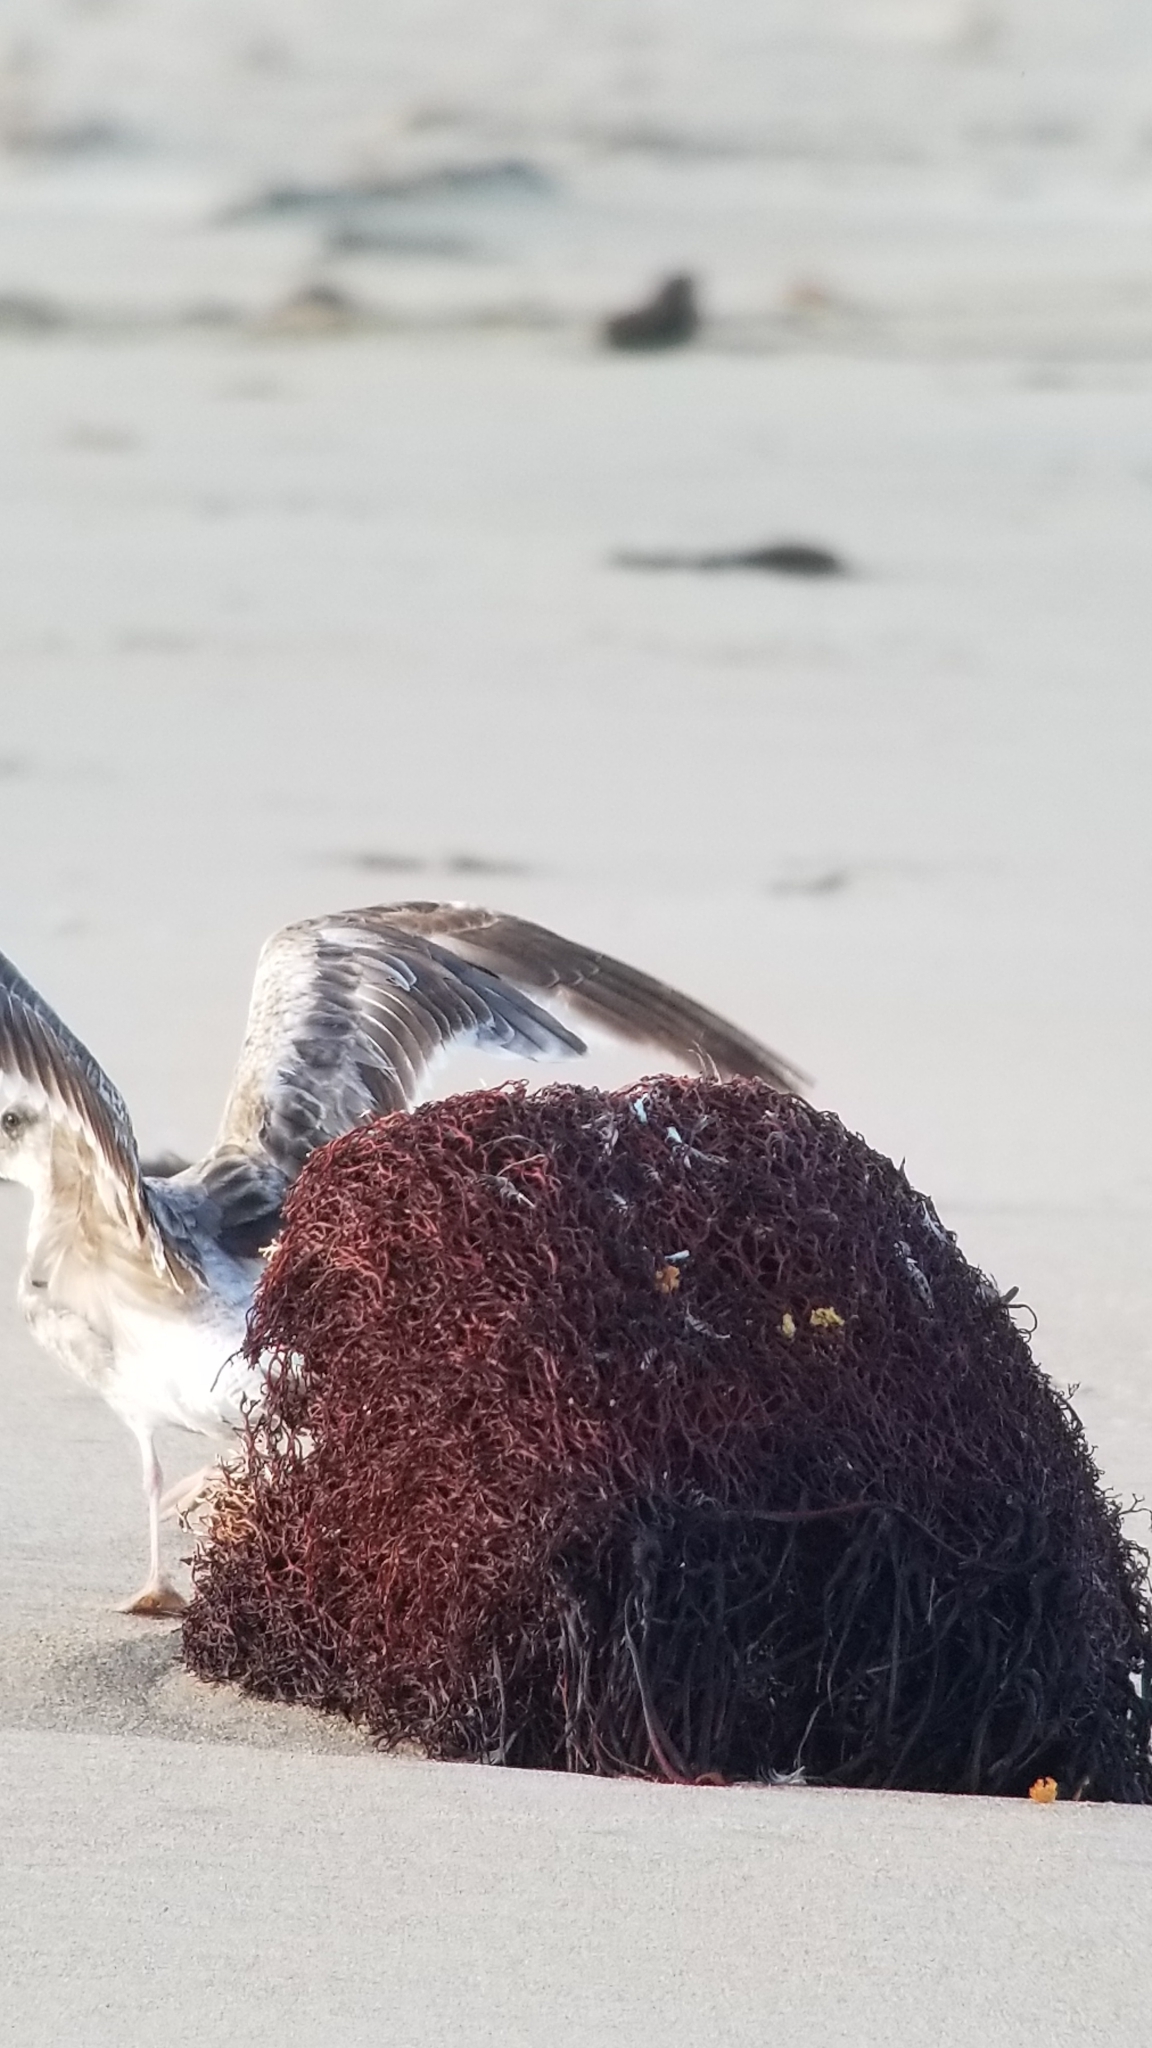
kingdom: Animalia
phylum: Chordata
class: Aves
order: Charadriiformes
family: Laridae
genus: Larus
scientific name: Larus californicus
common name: California gull
